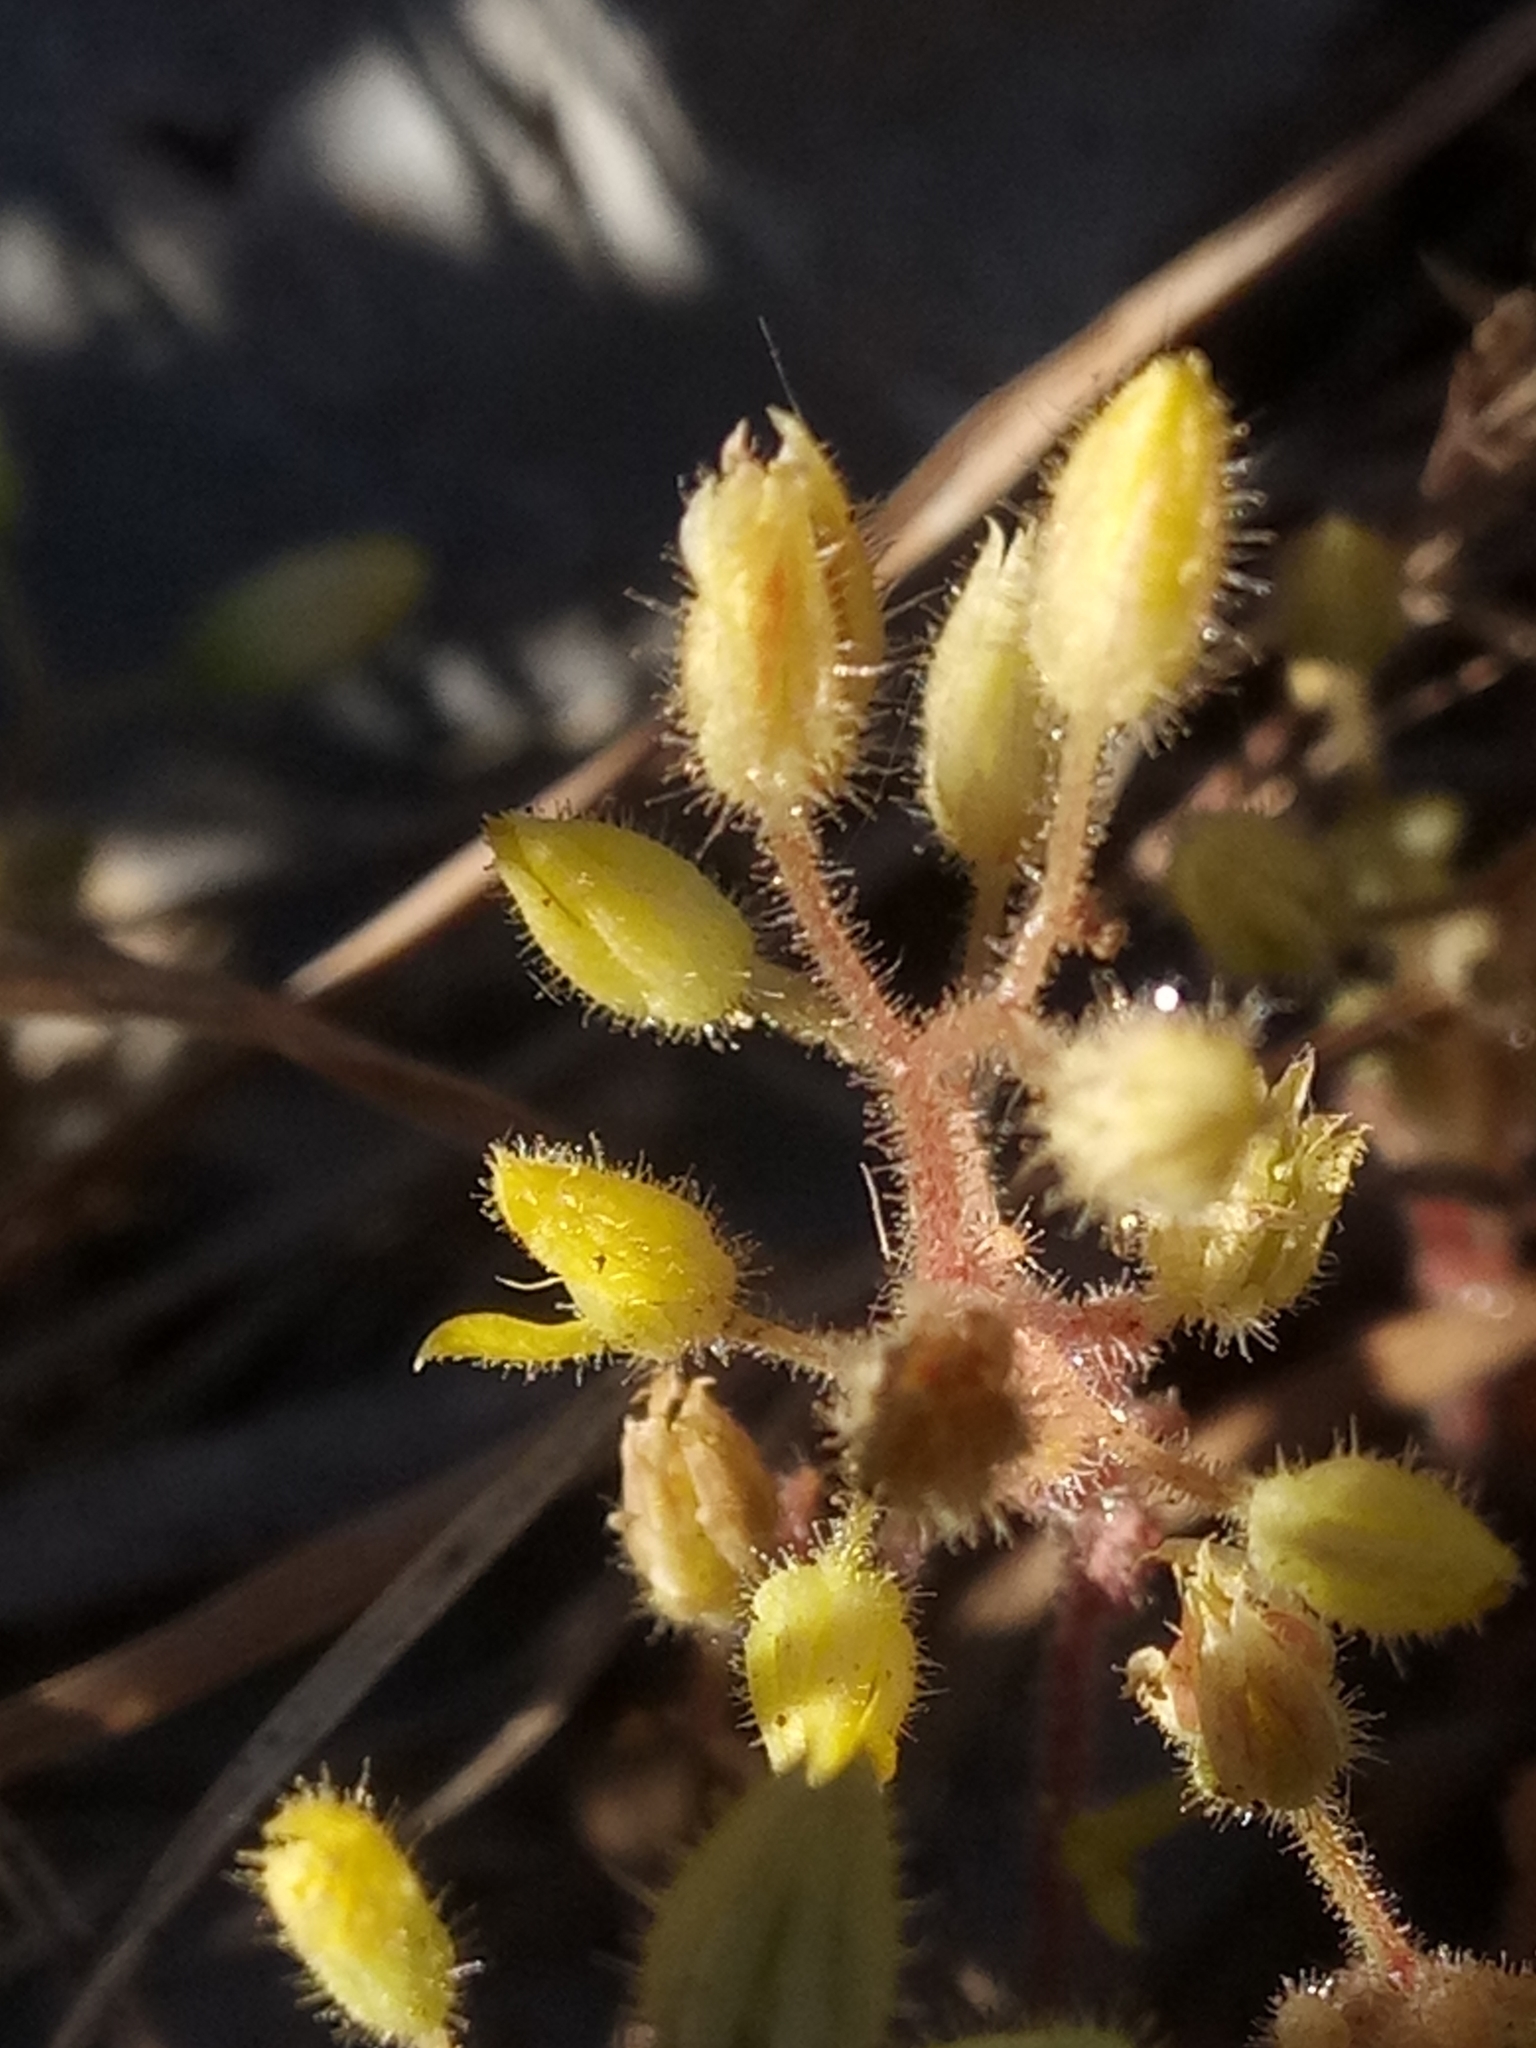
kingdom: Plantae
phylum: Tracheophyta
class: Magnoliopsida
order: Saxifragales
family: Crassulaceae
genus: Sedum
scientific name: Sedum pubescens
